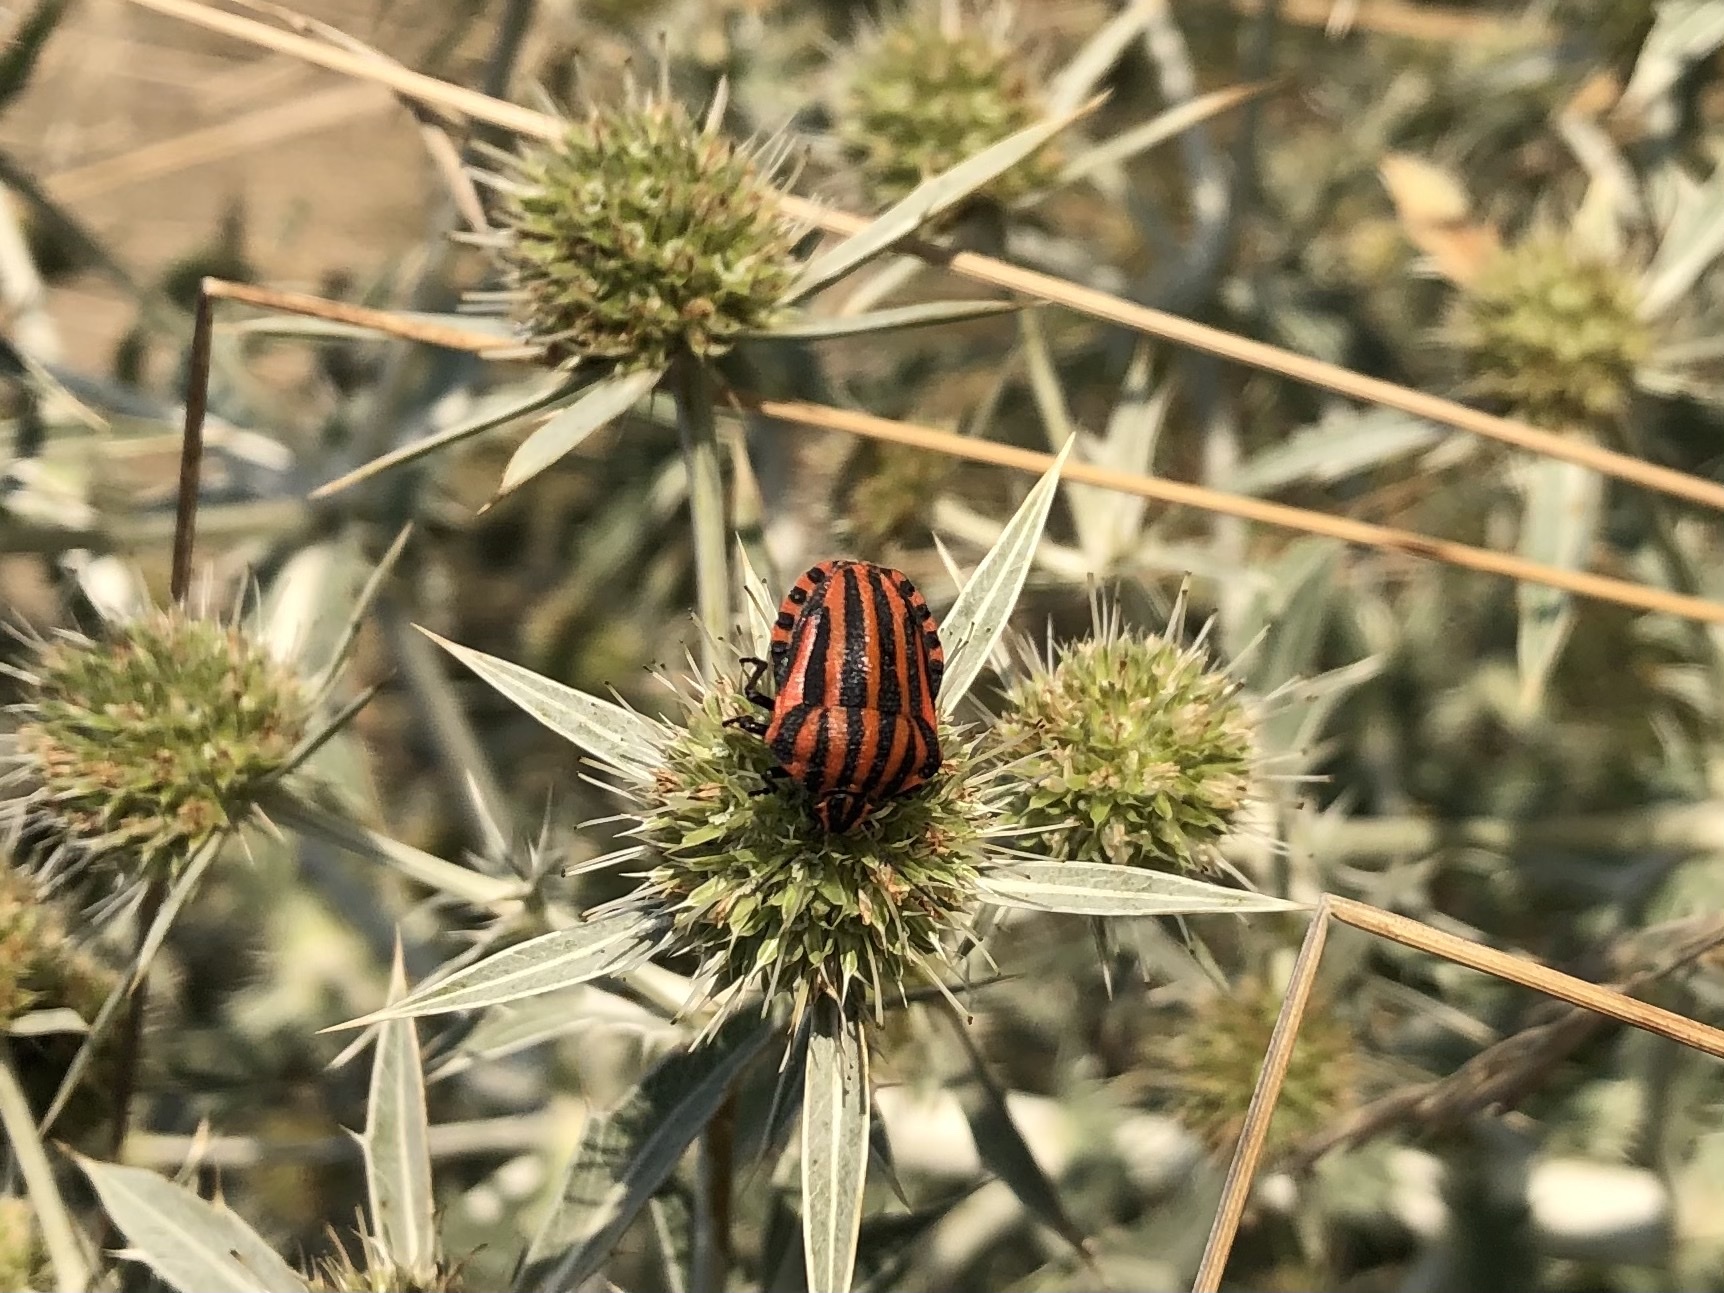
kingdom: Animalia
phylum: Arthropoda
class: Insecta
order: Hemiptera
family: Pentatomidae
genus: Graphosoma
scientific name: Graphosoma italicum
